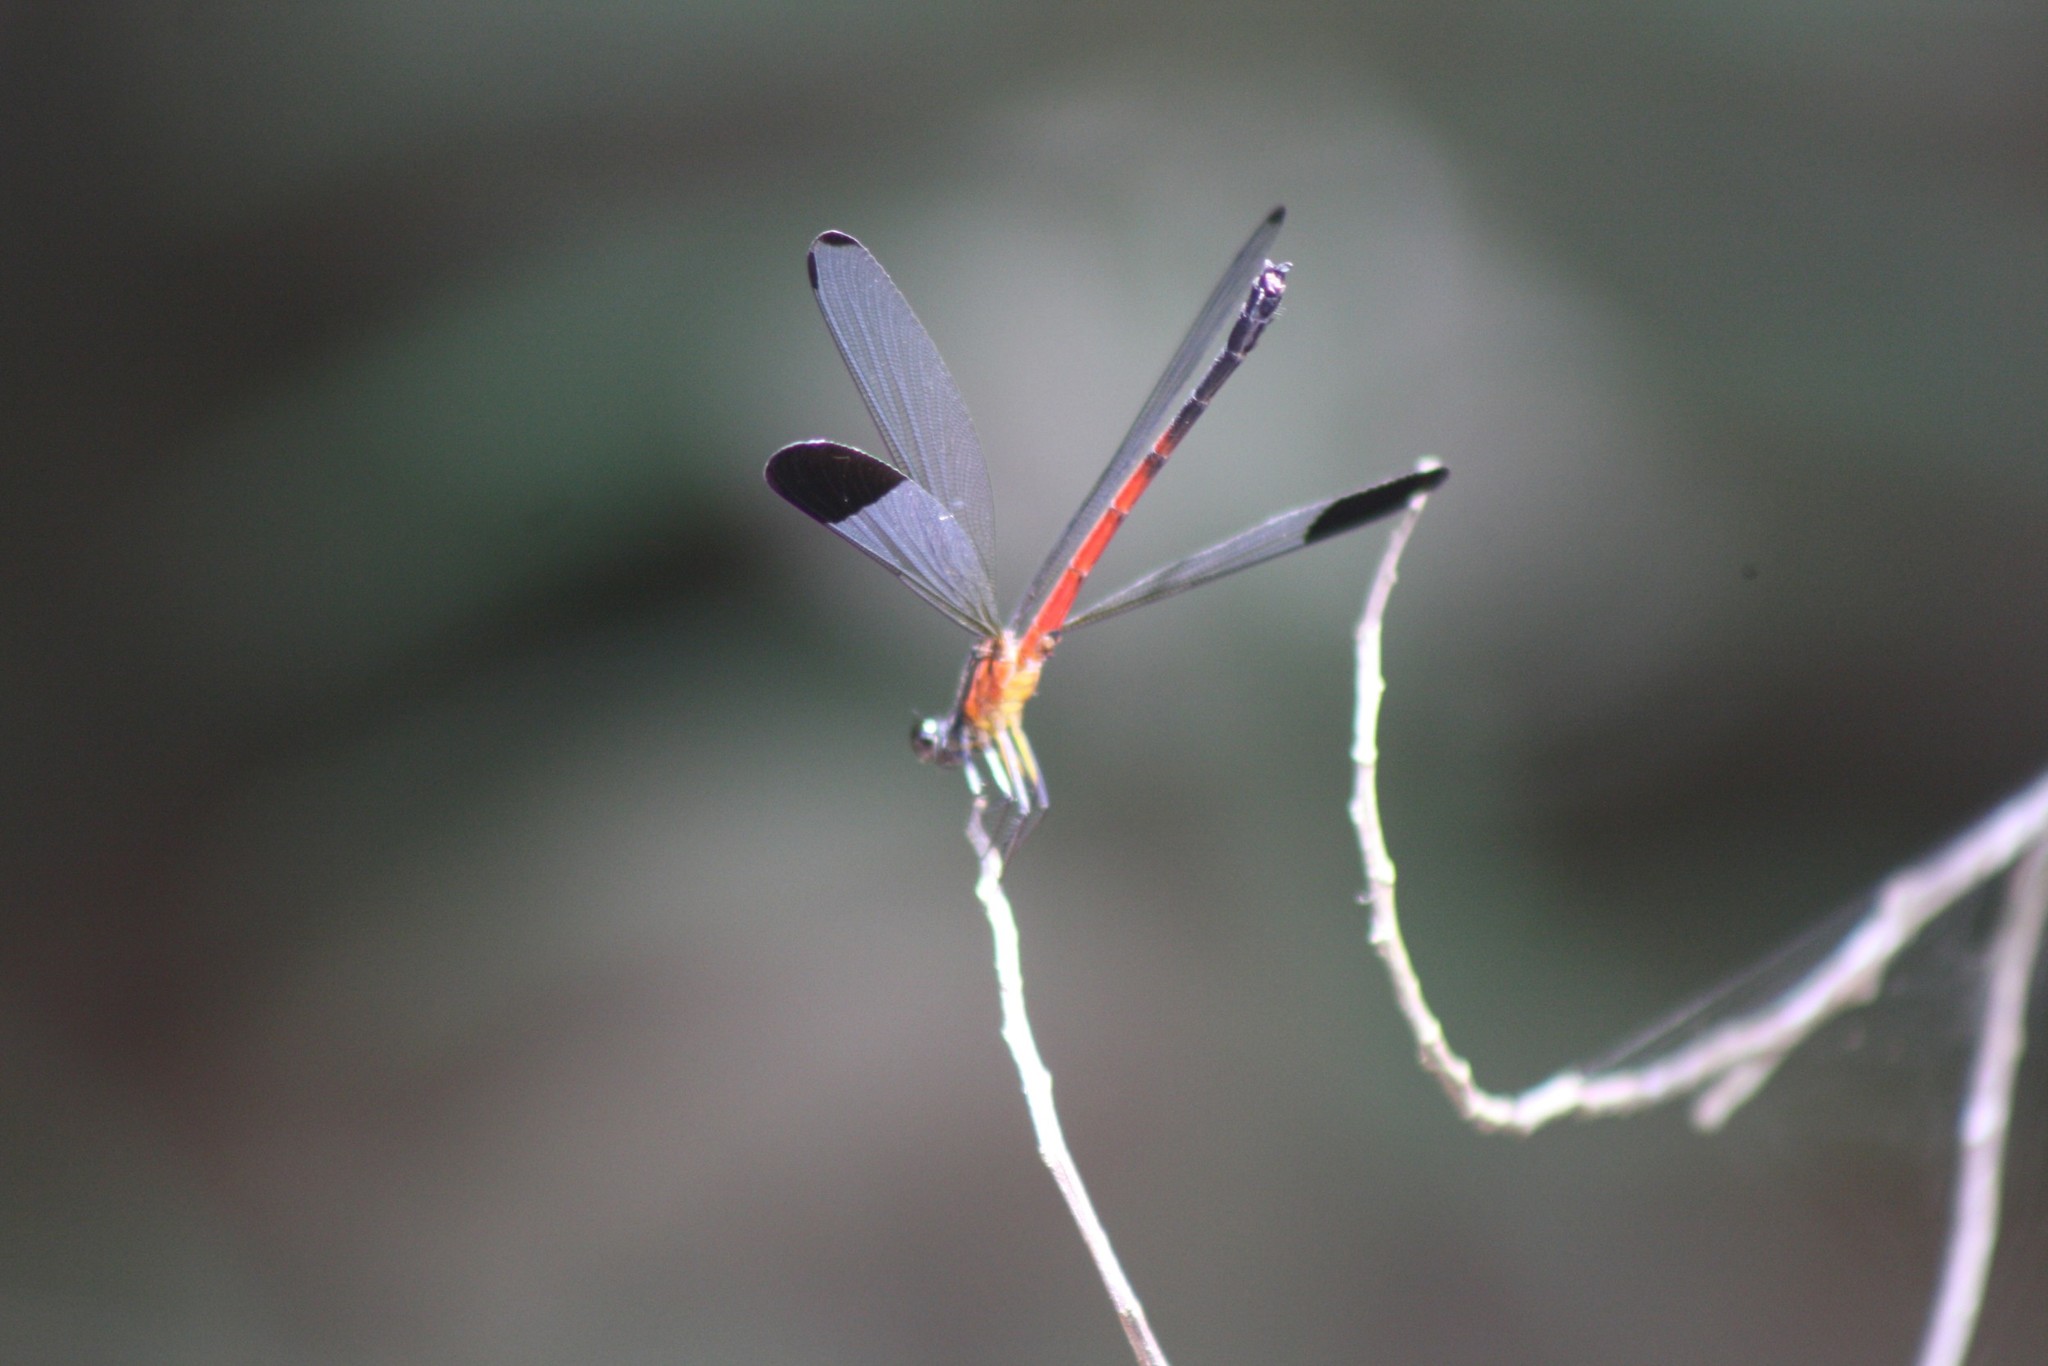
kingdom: Animalia
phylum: Arthropoda
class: Insecta
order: Odonata
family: Euphaeidae
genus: Euphaea
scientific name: Euphaea dispar
